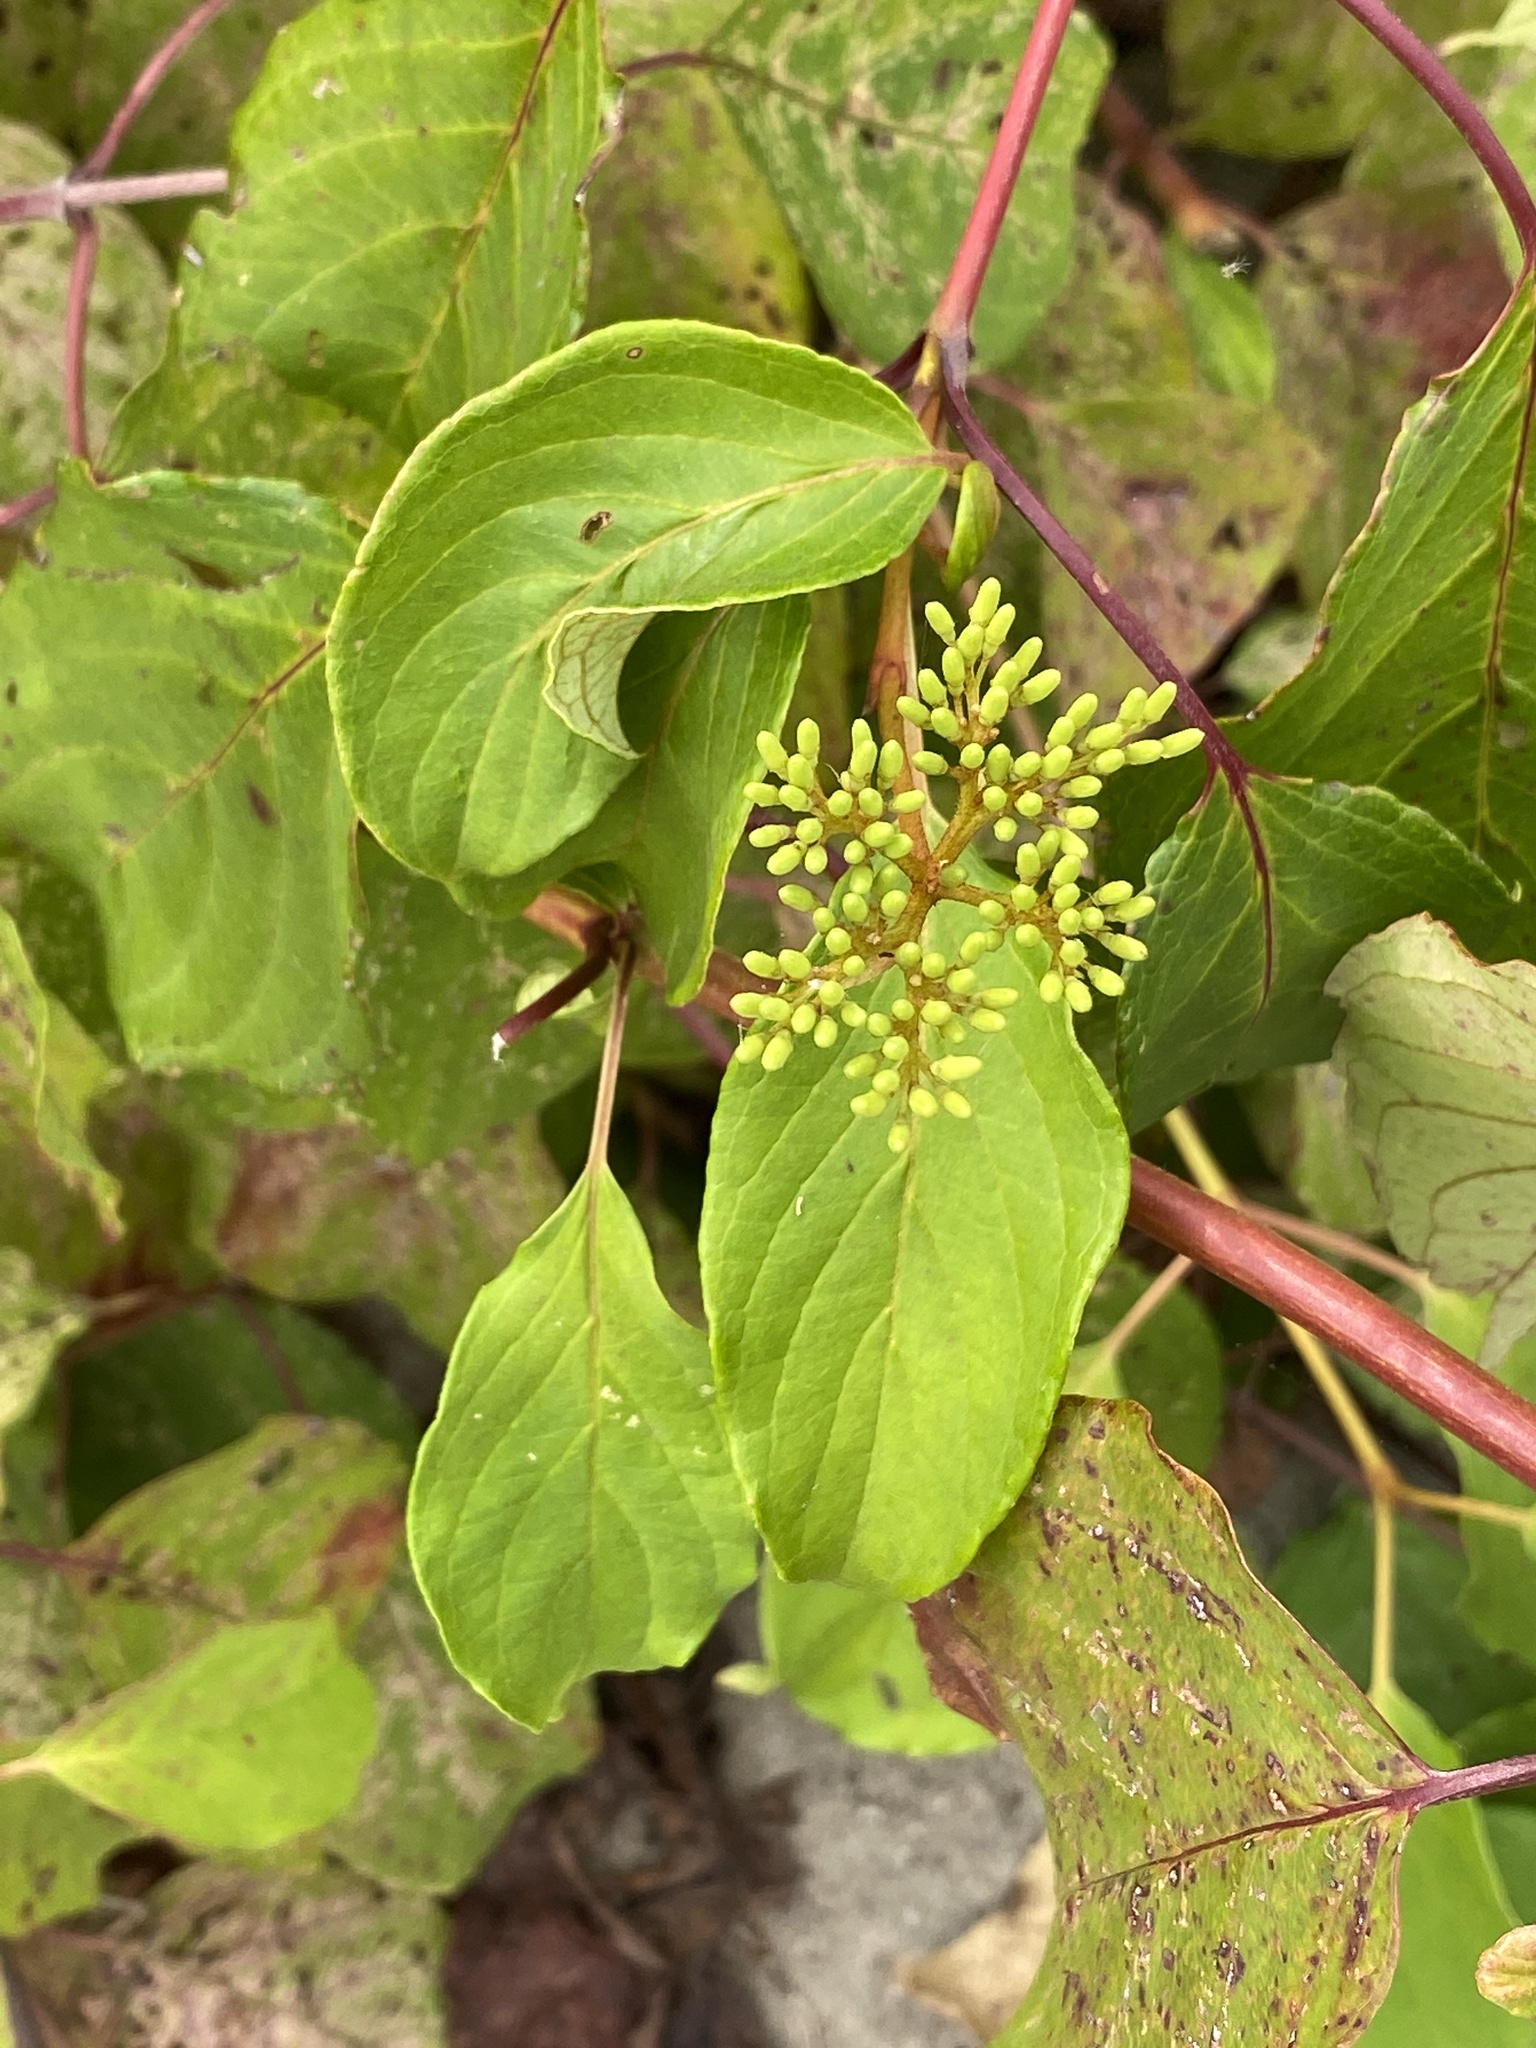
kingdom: Plantae
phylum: Tracheophyta
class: Magnoliopsida
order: Cornales
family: Cornaceae
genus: Cornus
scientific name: Cornus amomum
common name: Silky dogwood
